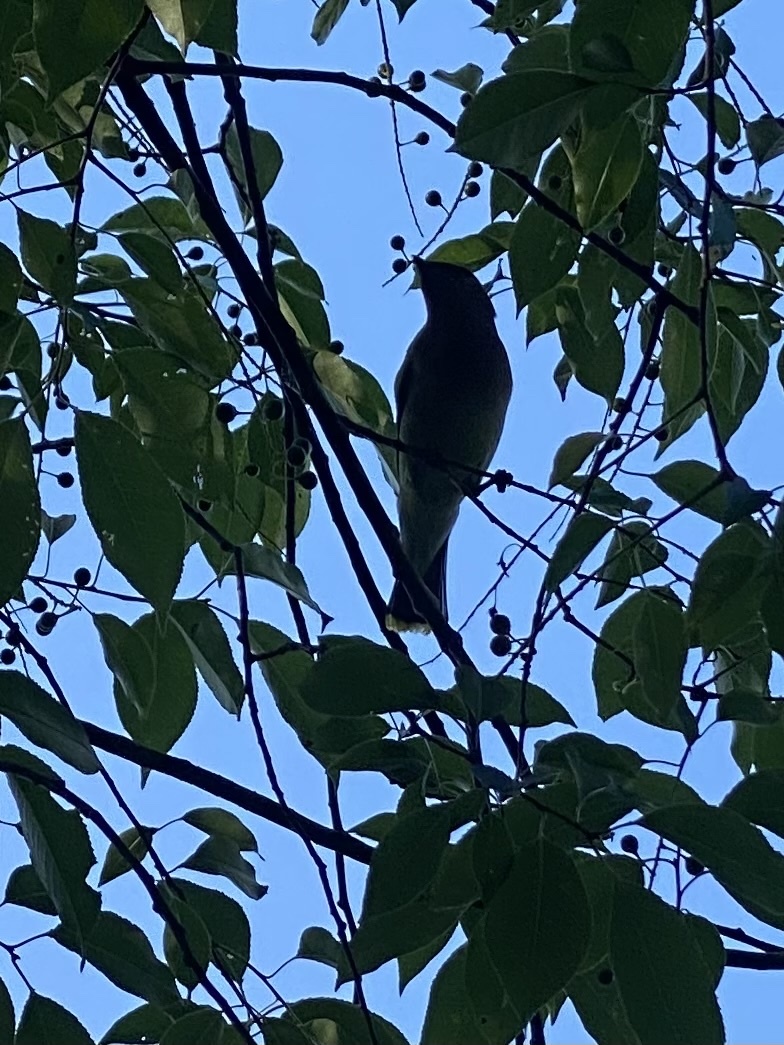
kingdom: Animalia
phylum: Chordata
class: Aves
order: Passeriformes
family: Bombycillidae
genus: Bombycilla
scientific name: Bombycilla cedrorum
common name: Cedar waxwing
